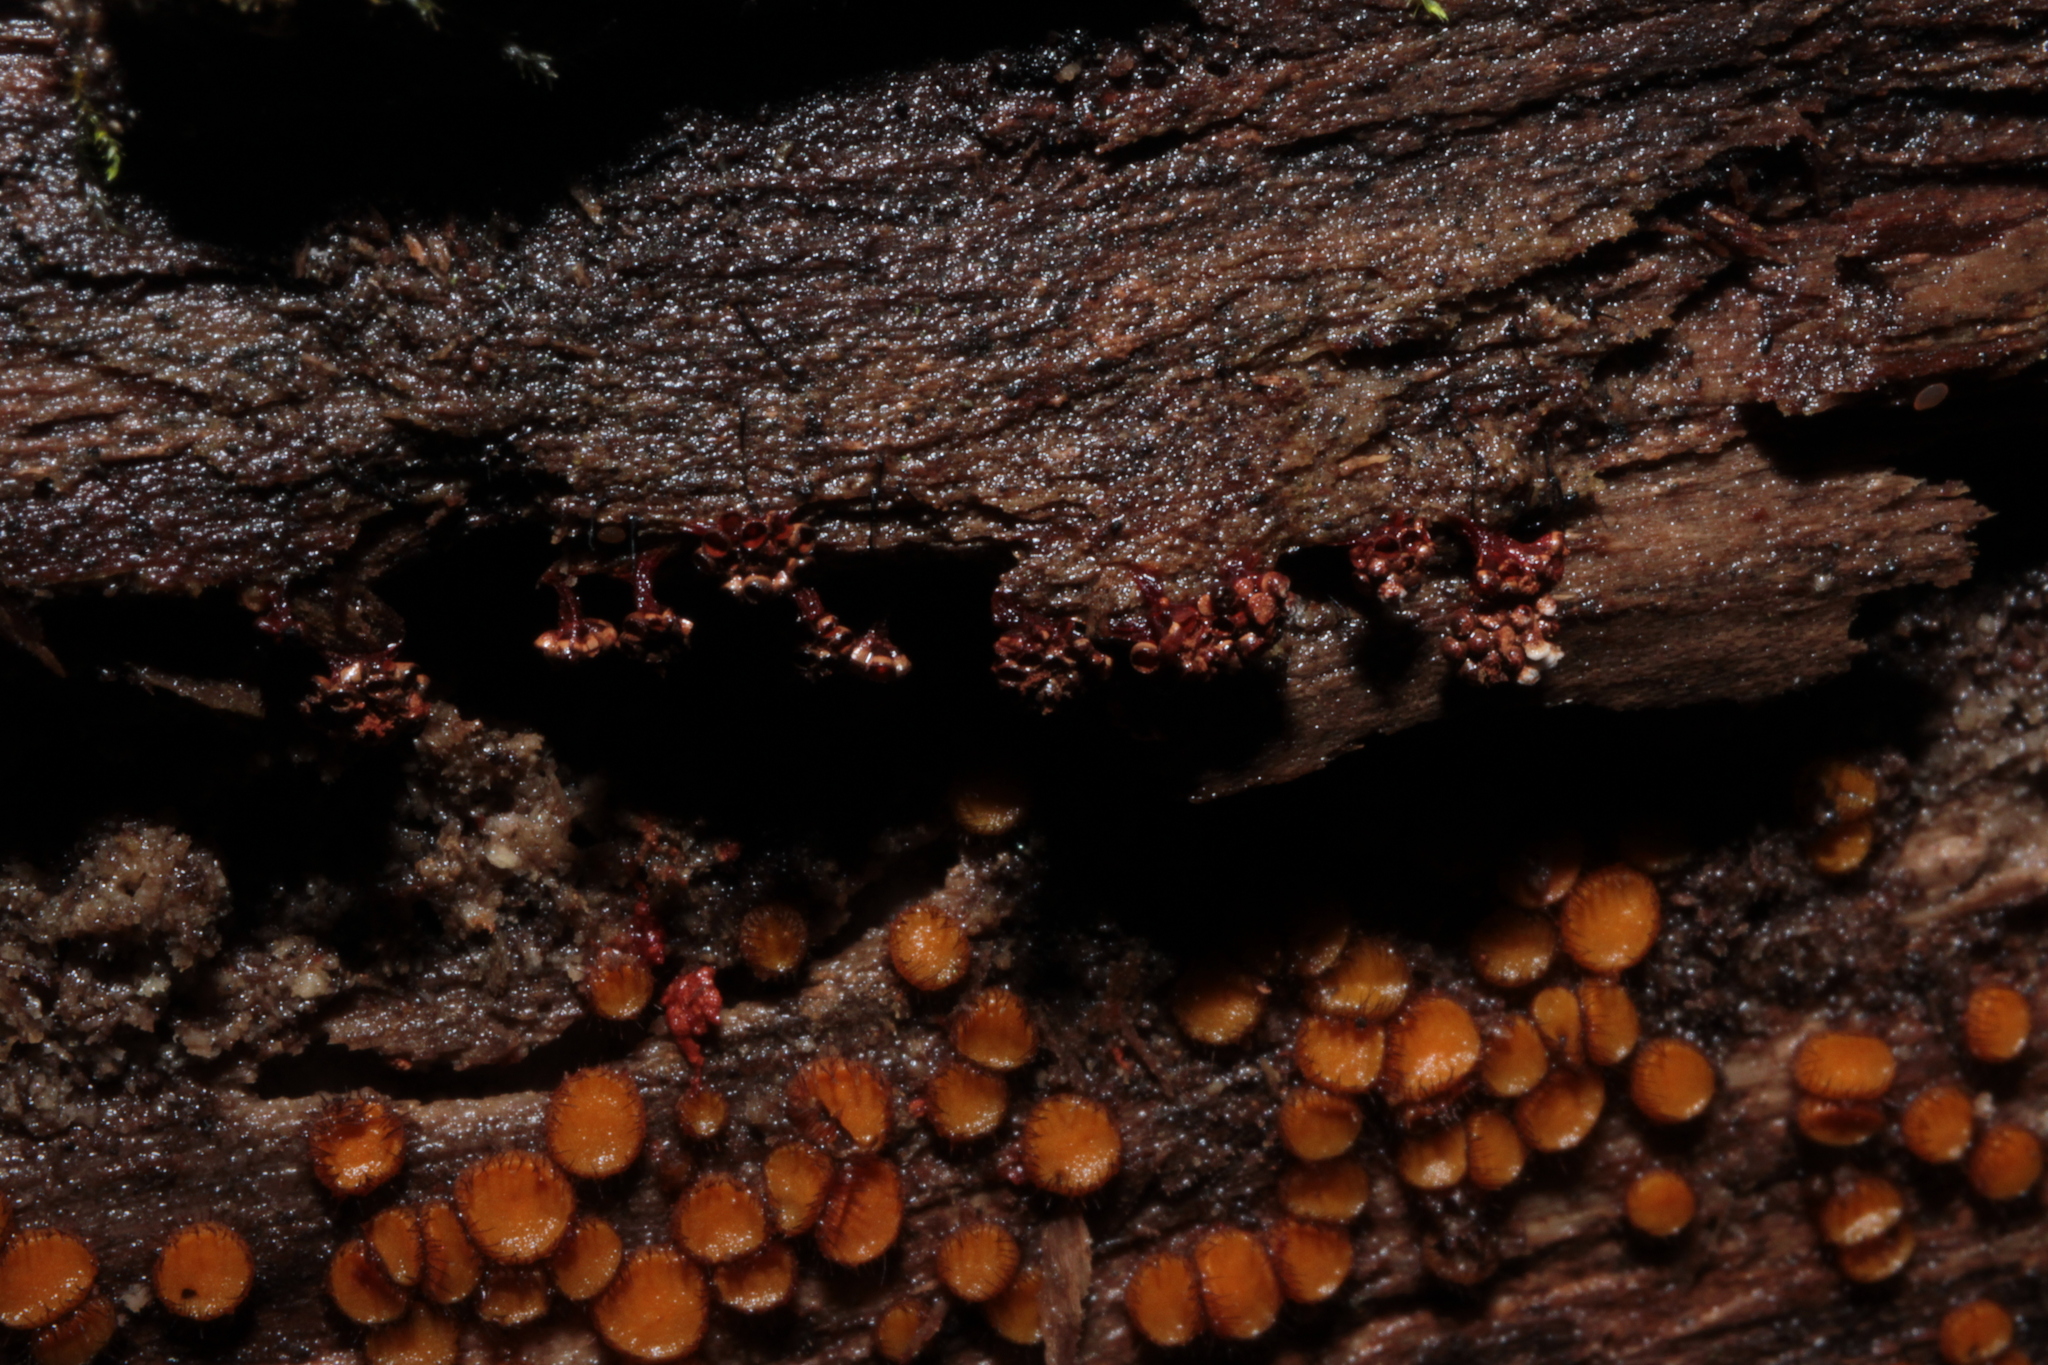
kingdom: Protozoa
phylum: Mycetozoa
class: Myxomycetes
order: Trichiales
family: Trichiaceae
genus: Metatrichia
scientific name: Metatrichia vesparia
